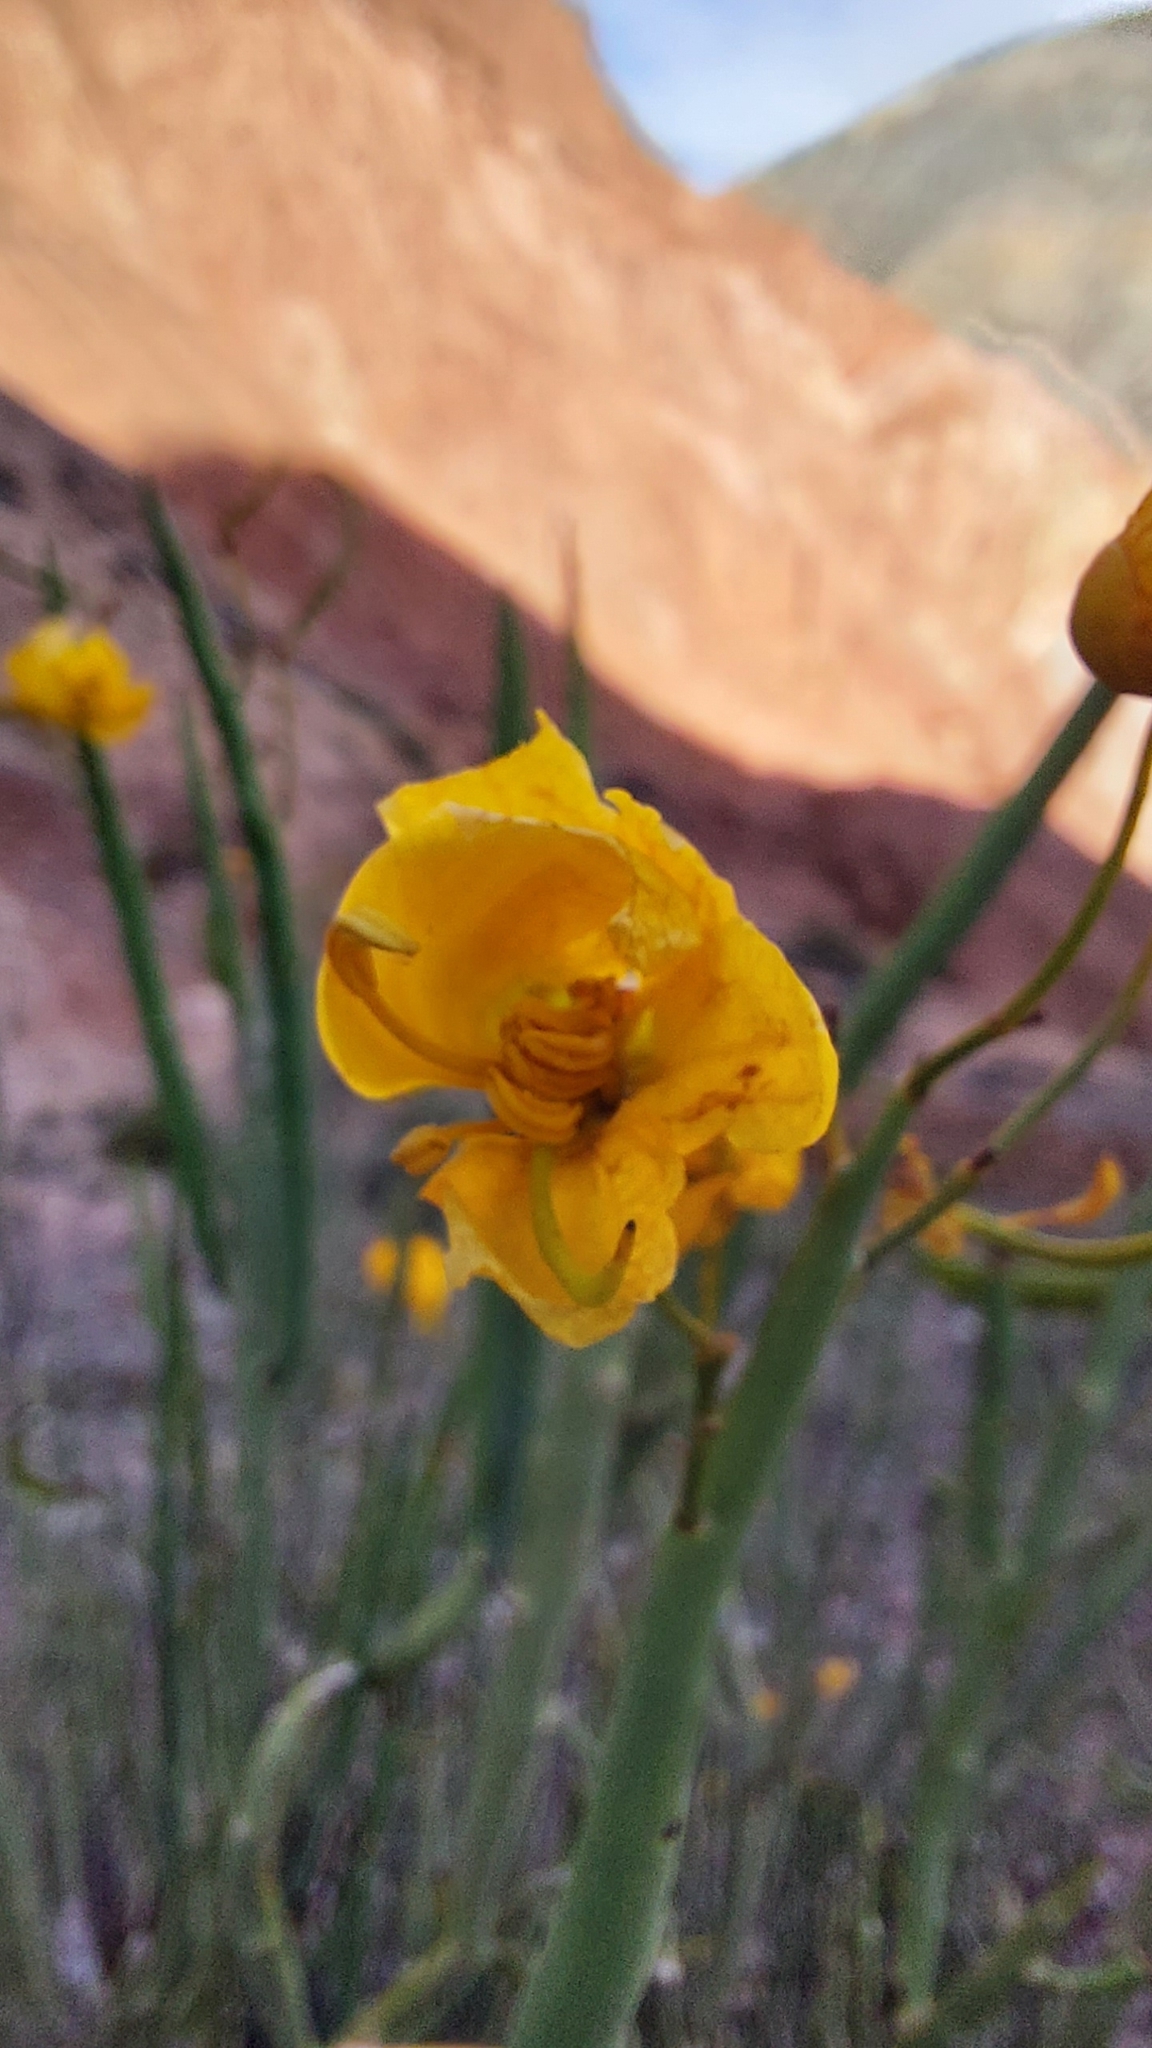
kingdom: Plantae
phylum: Tracheophyta
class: Magnoliopsida
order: Fabales
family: Fabaceae
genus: Senna
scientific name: Senna crassiramea
